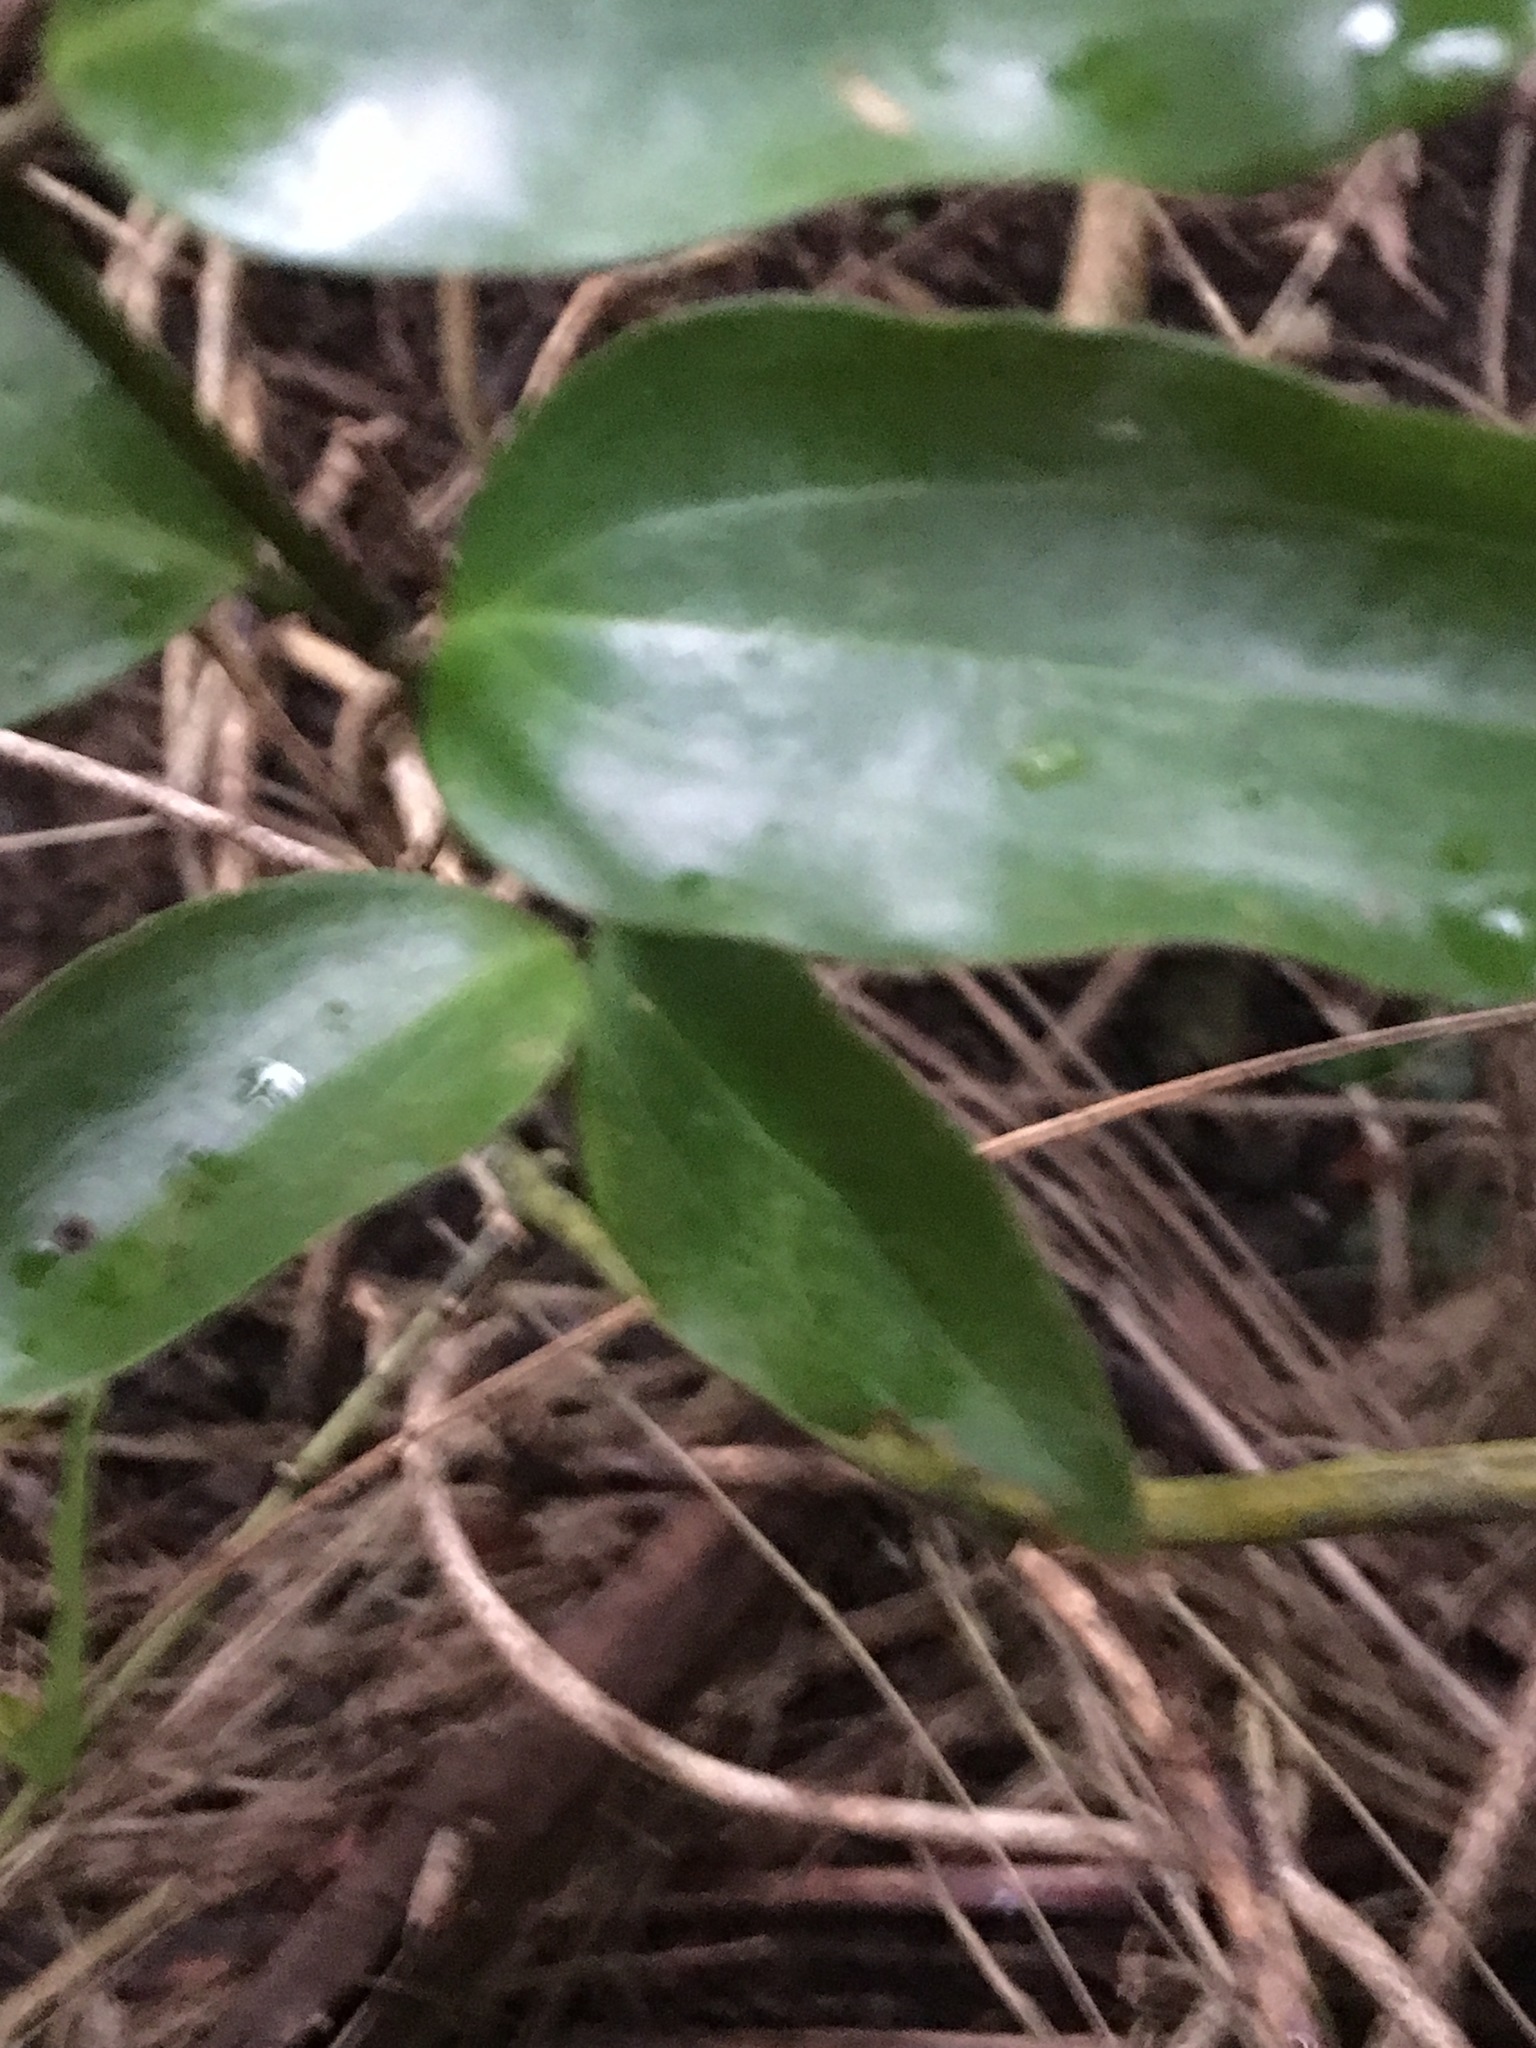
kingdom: Plantae
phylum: Tracheophyta
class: Liliopsida
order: Liliales
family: Ripogonaceae
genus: Ripogonum
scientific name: Ripogonum scandens
